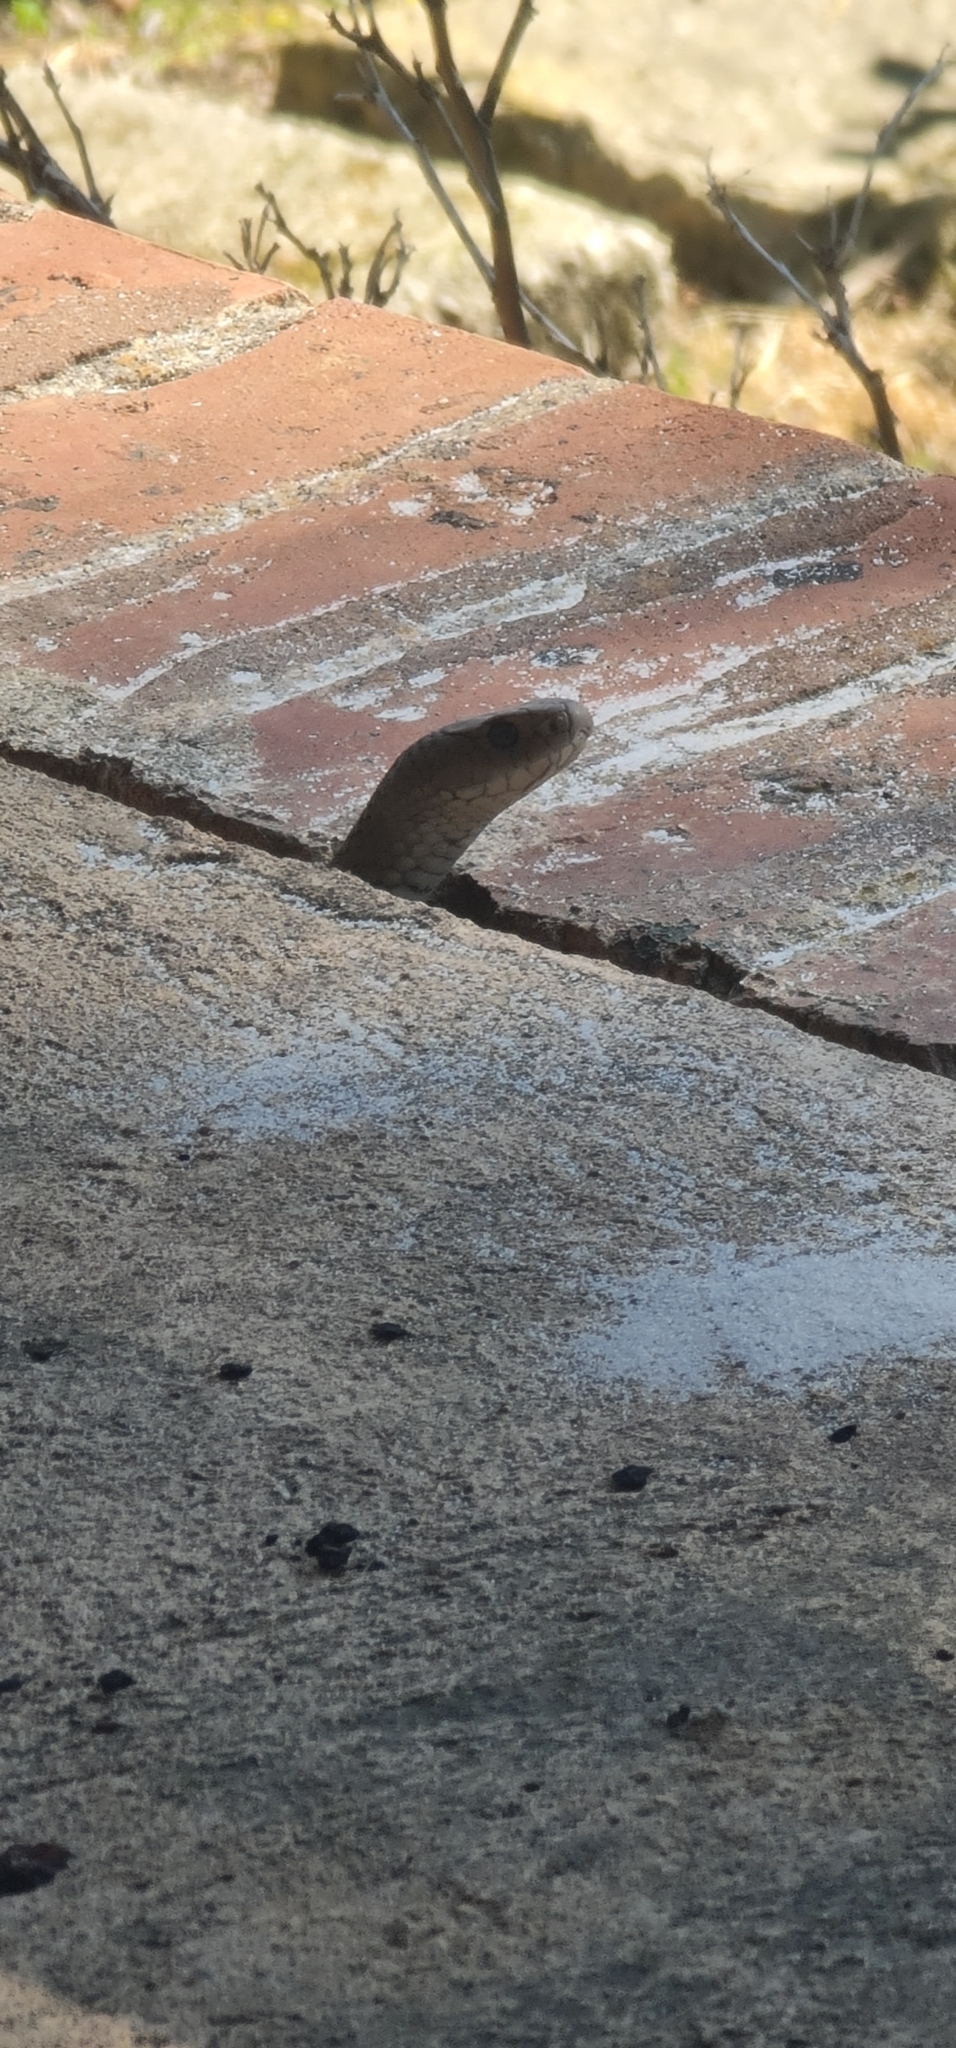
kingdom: Animalia
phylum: Chordata
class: Squamata
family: Elapidae
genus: Pseudonaja
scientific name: Pseudonaja textilis
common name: Eastern brown snake
